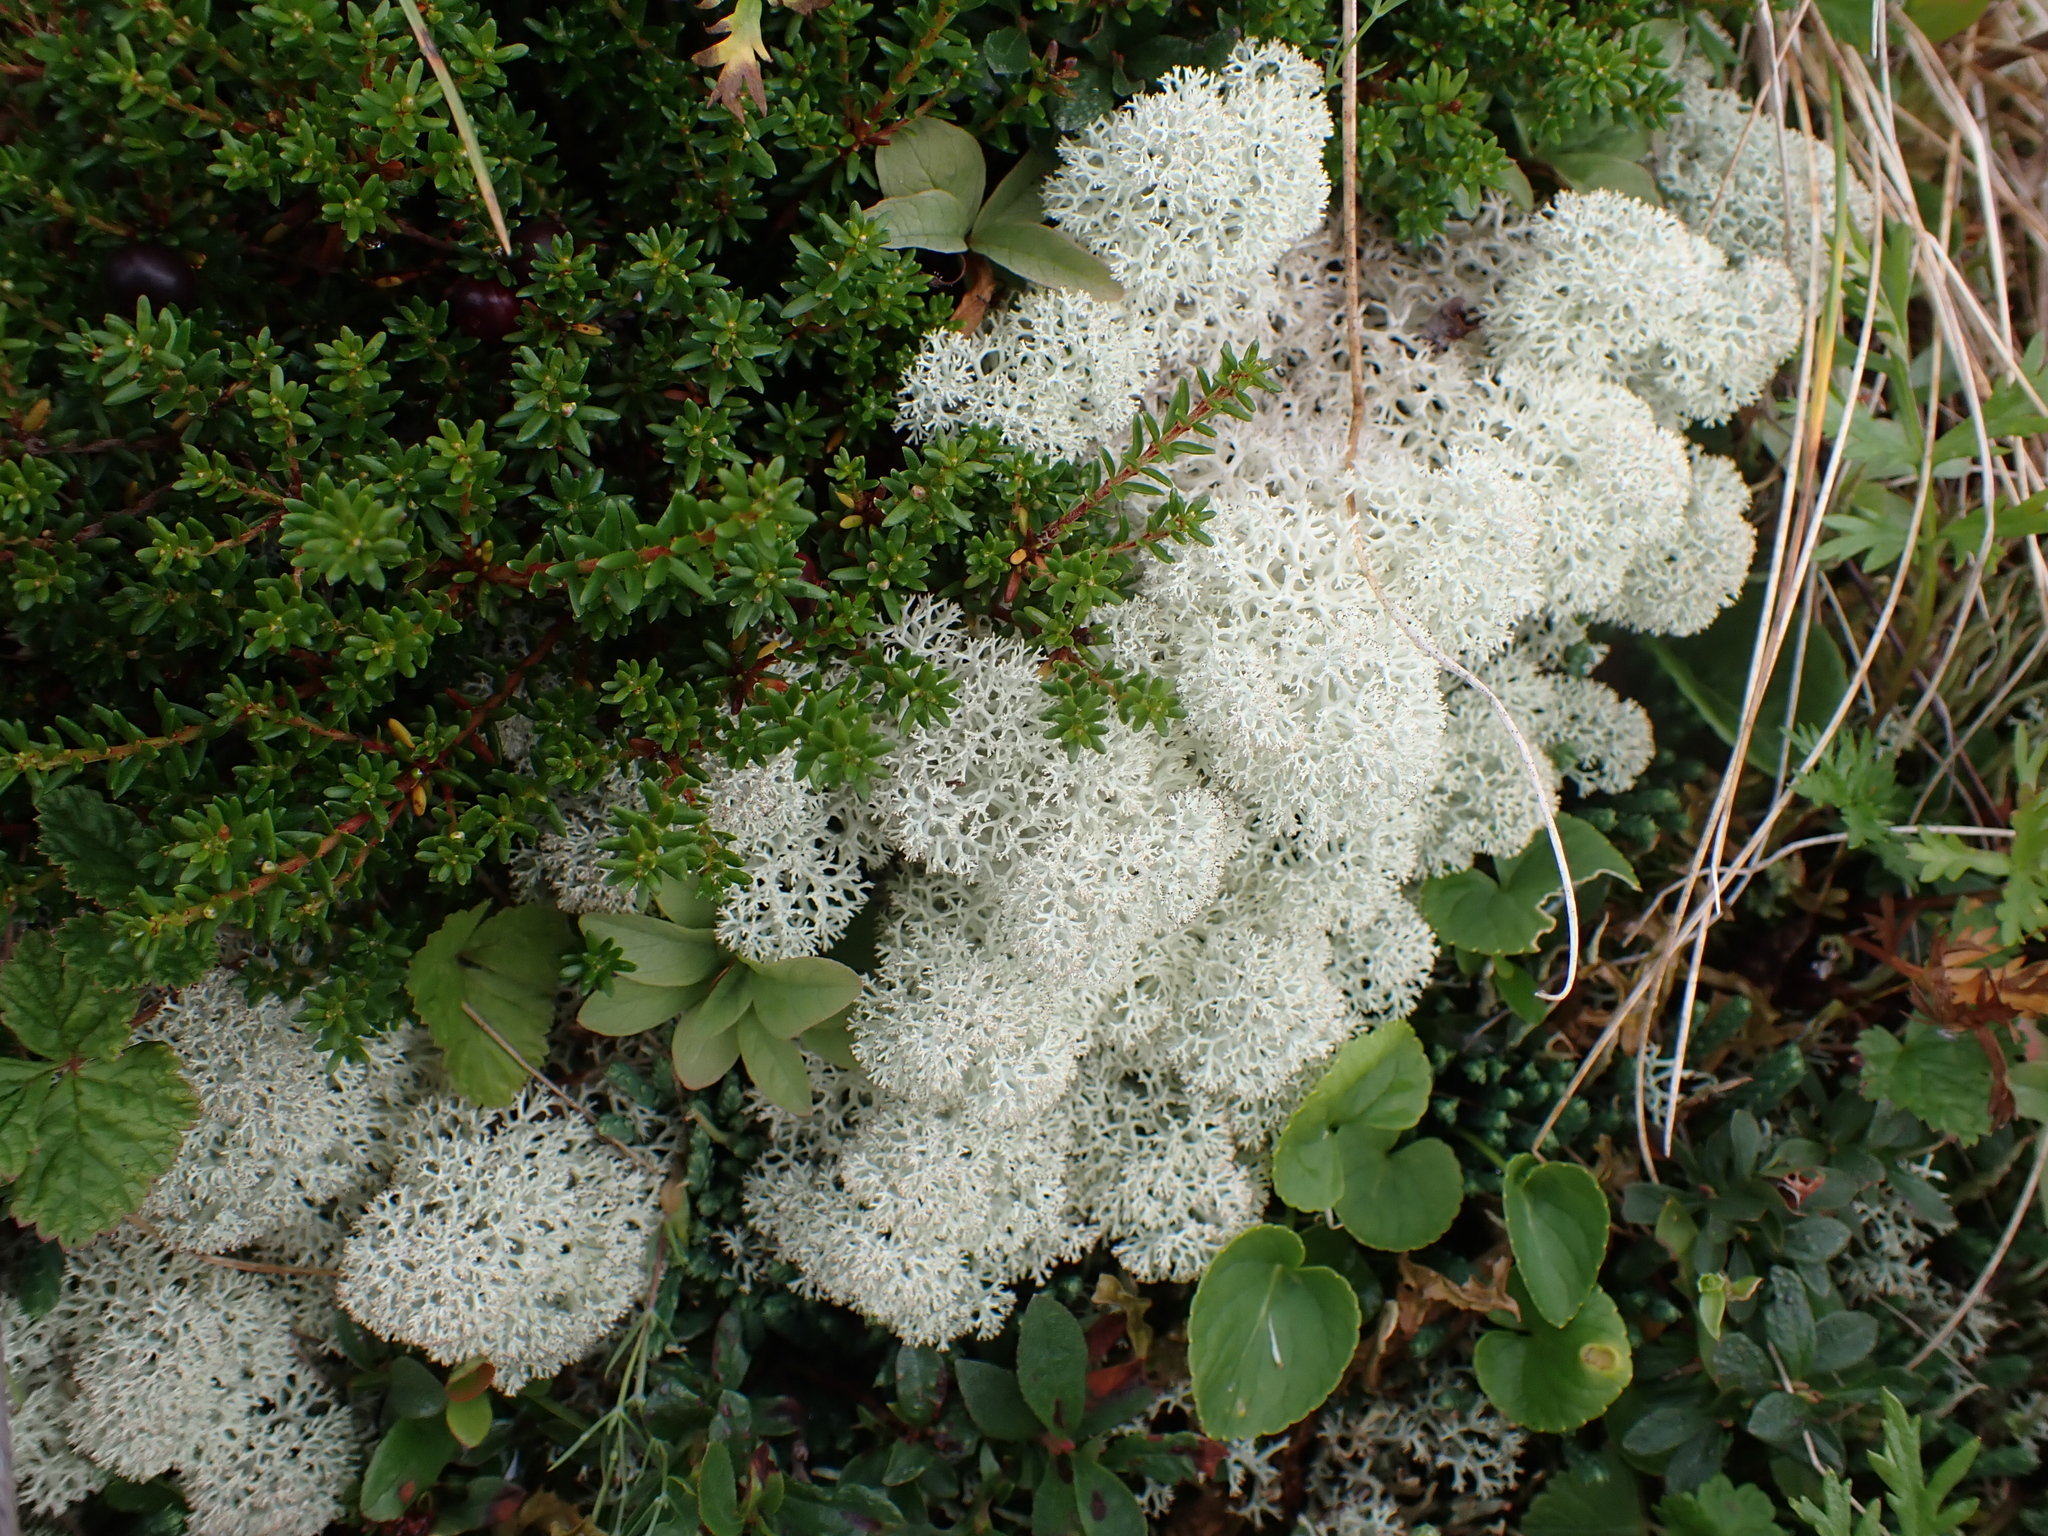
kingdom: Plantae
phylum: Tracheophyta
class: Magnoliopsida
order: Ericales
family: Ericaceae
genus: Empetrum
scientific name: Empetrum nigrum
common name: Black crowberry
